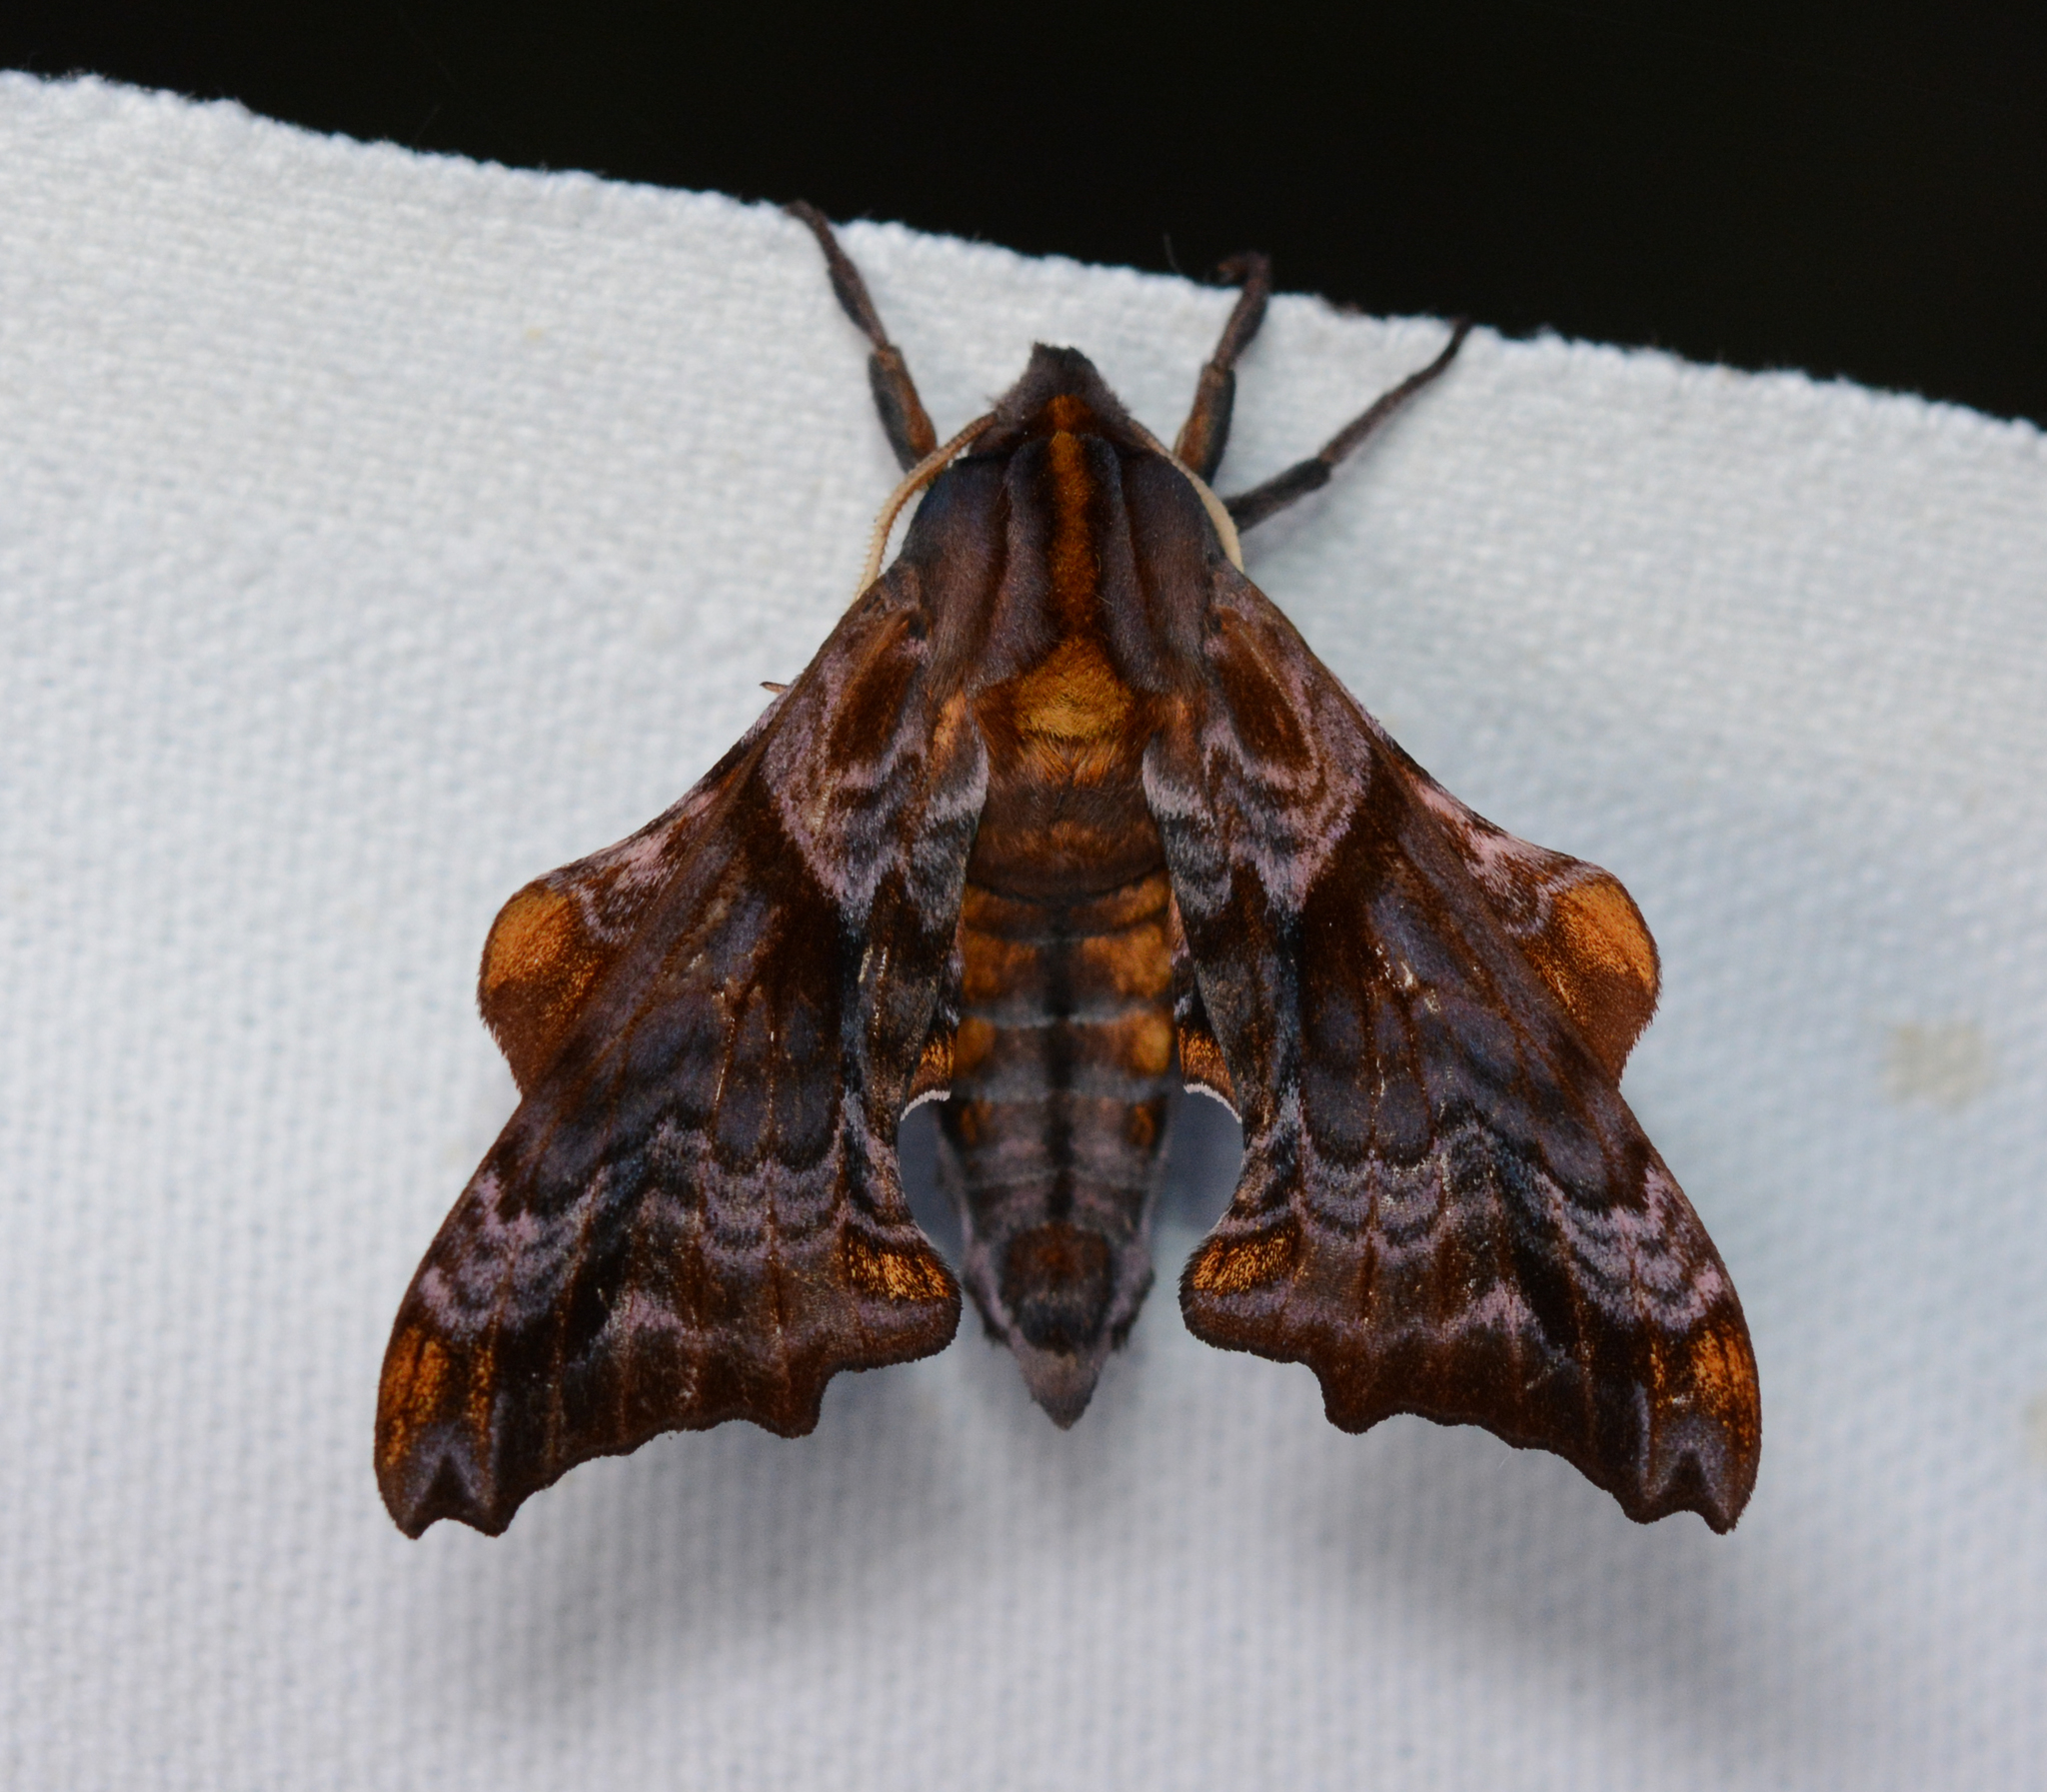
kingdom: Animalia
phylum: Arthropoda
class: Insecta
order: Lepidoptera
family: Sphingidae
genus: Paonias
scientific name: Paonias myops
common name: Small-eyed sphinx
